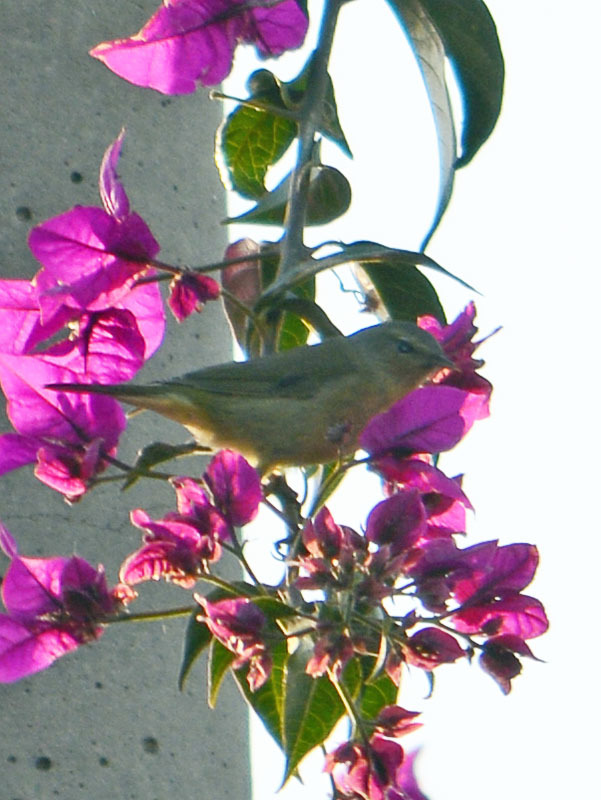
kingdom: Animalia
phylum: Chordata
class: Aves
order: Passeriformes
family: Parulidae
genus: Leiothlypis
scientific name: Leiothlypis celata
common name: Orange-crowned warbler
